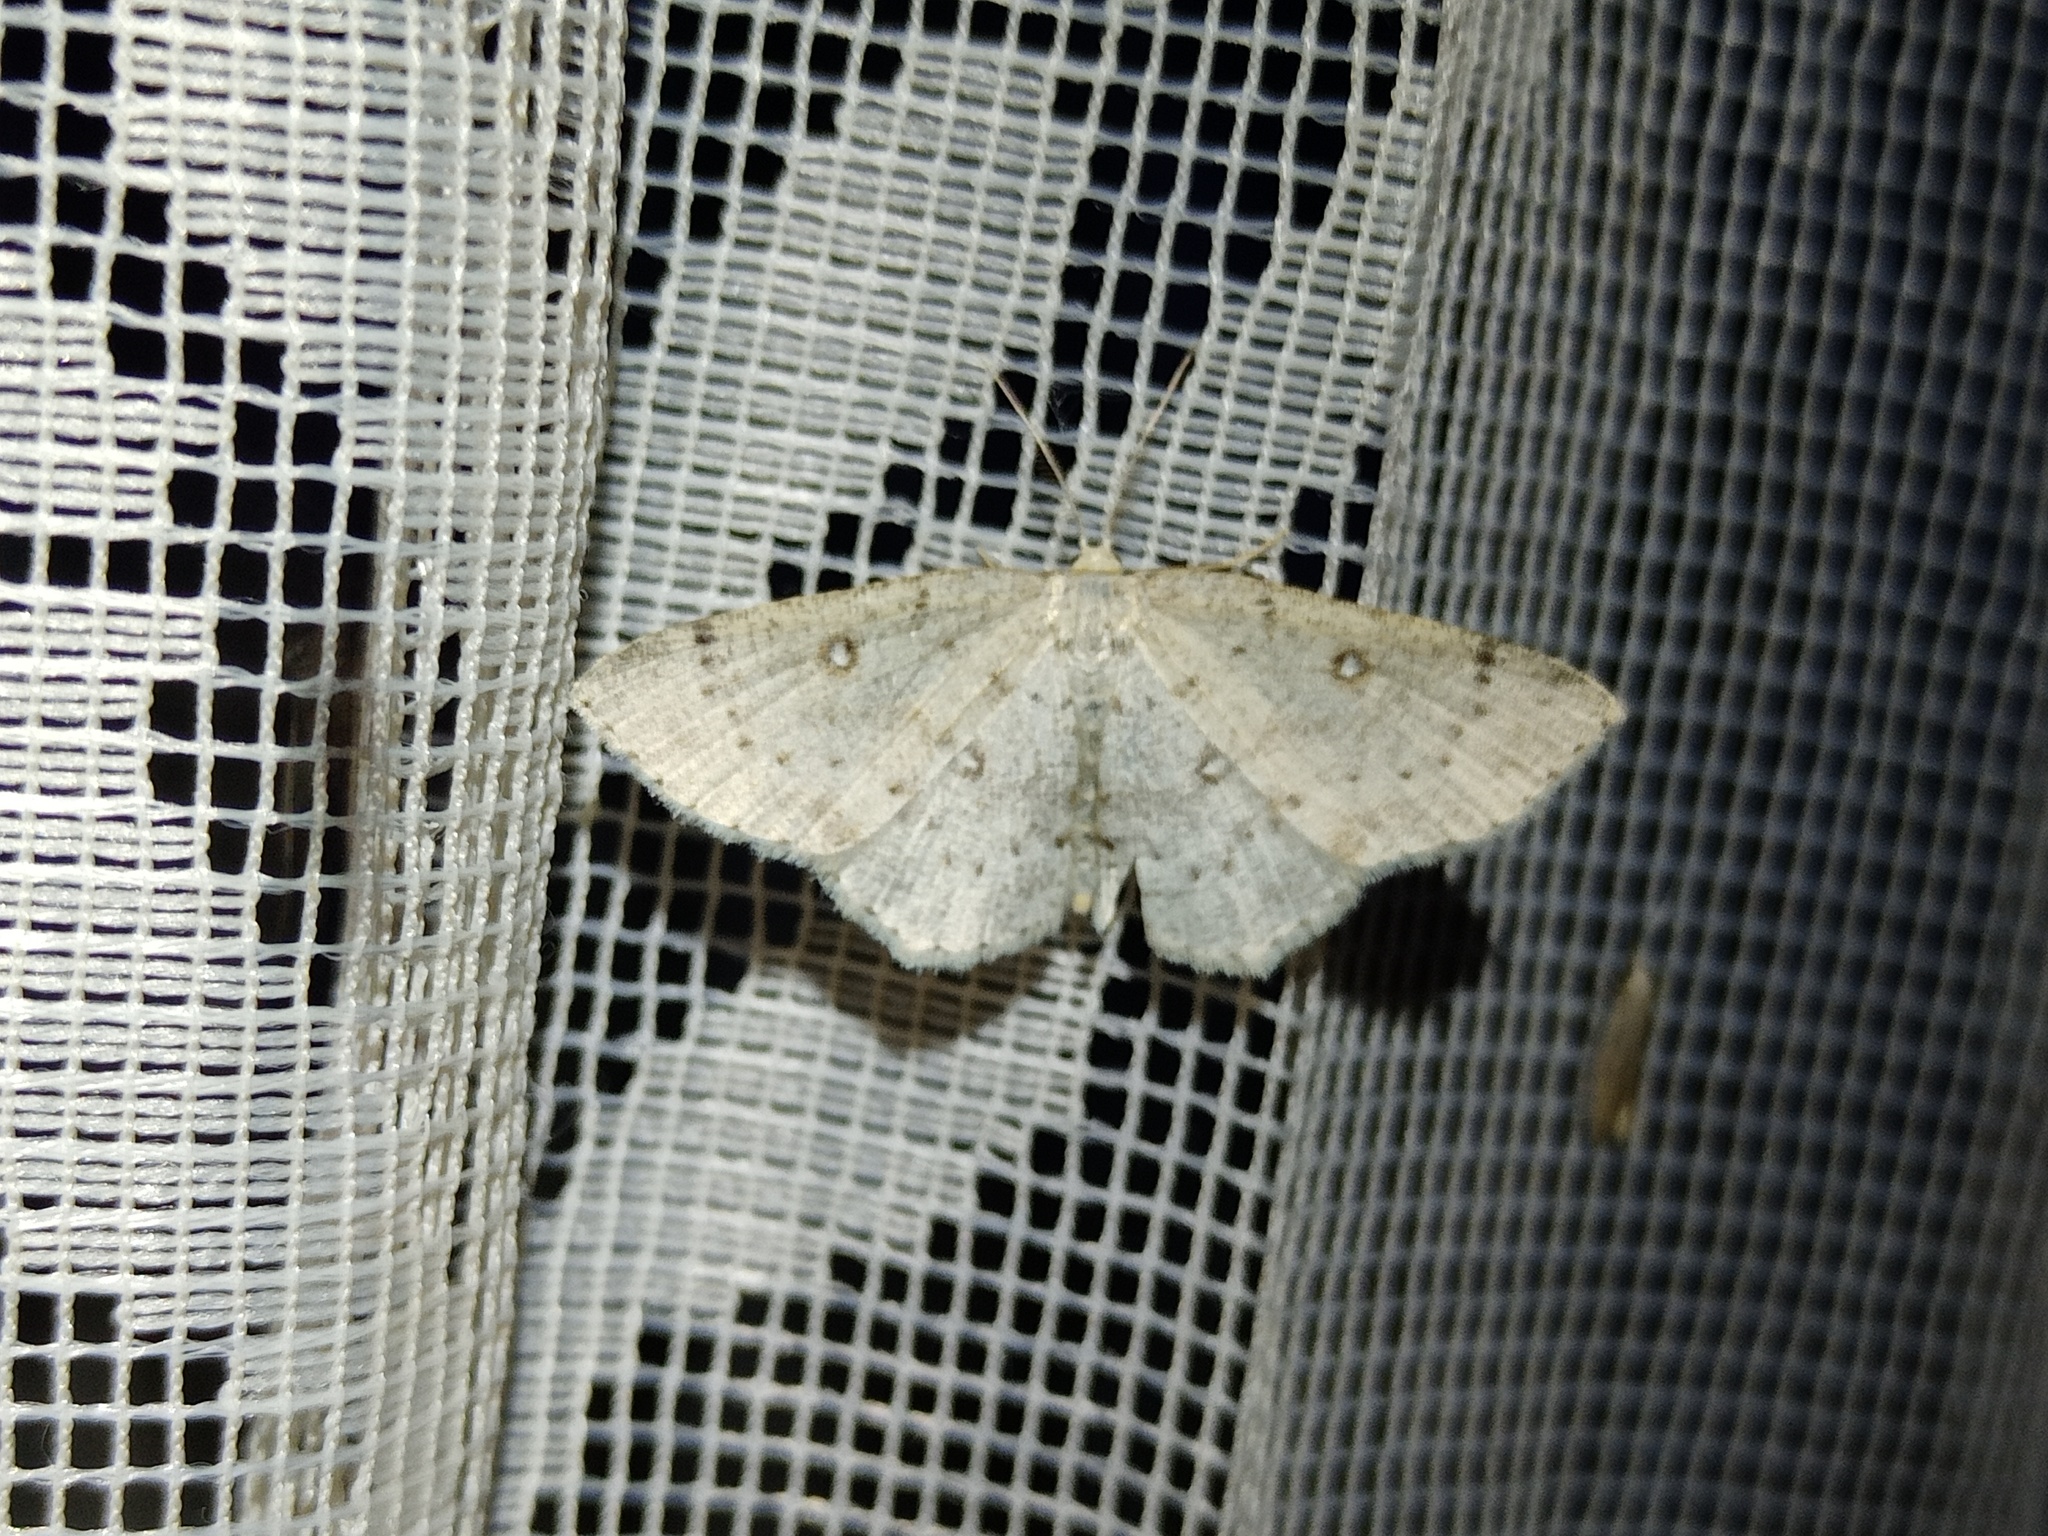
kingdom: Animalia
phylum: Arthropoda
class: Insecta
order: Lepidoptera
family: Geometridae
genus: Cyclophora
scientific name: Cyclophora albipunctata
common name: Birch mocha
